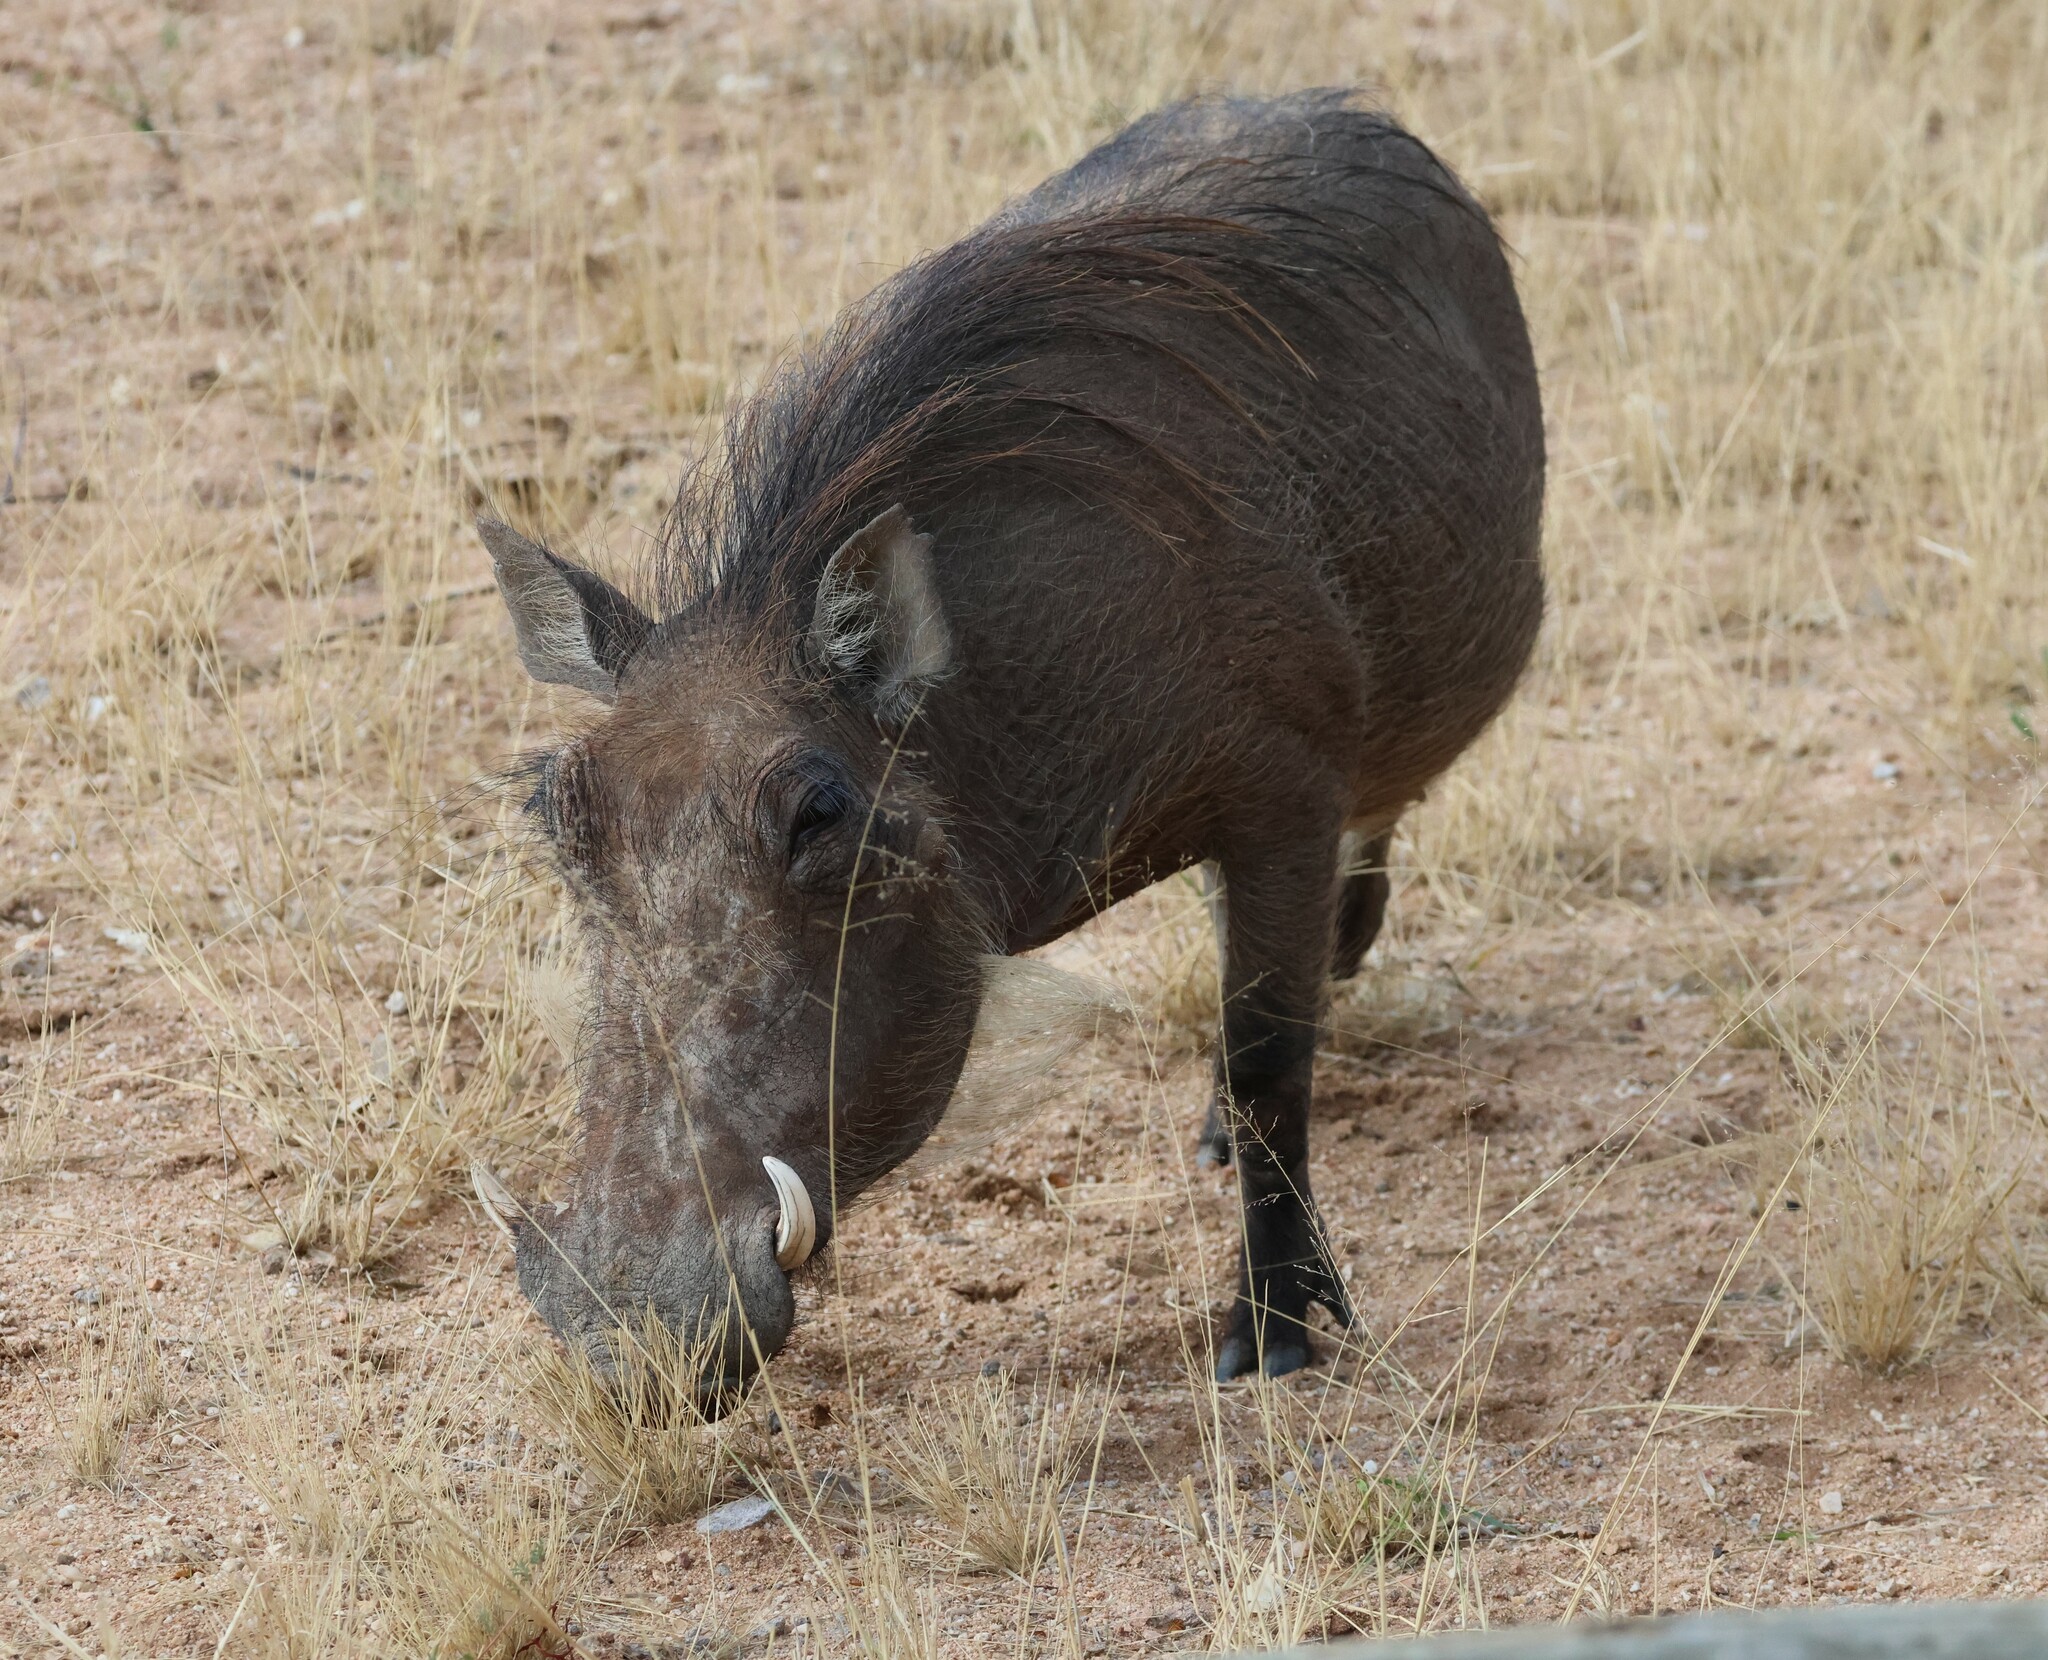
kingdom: Animalia
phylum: Chordata
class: Mammalia
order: Artiodactyla
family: Suidae
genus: Phacochoerus
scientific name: Phacochoerus africanus
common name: Common warthog
